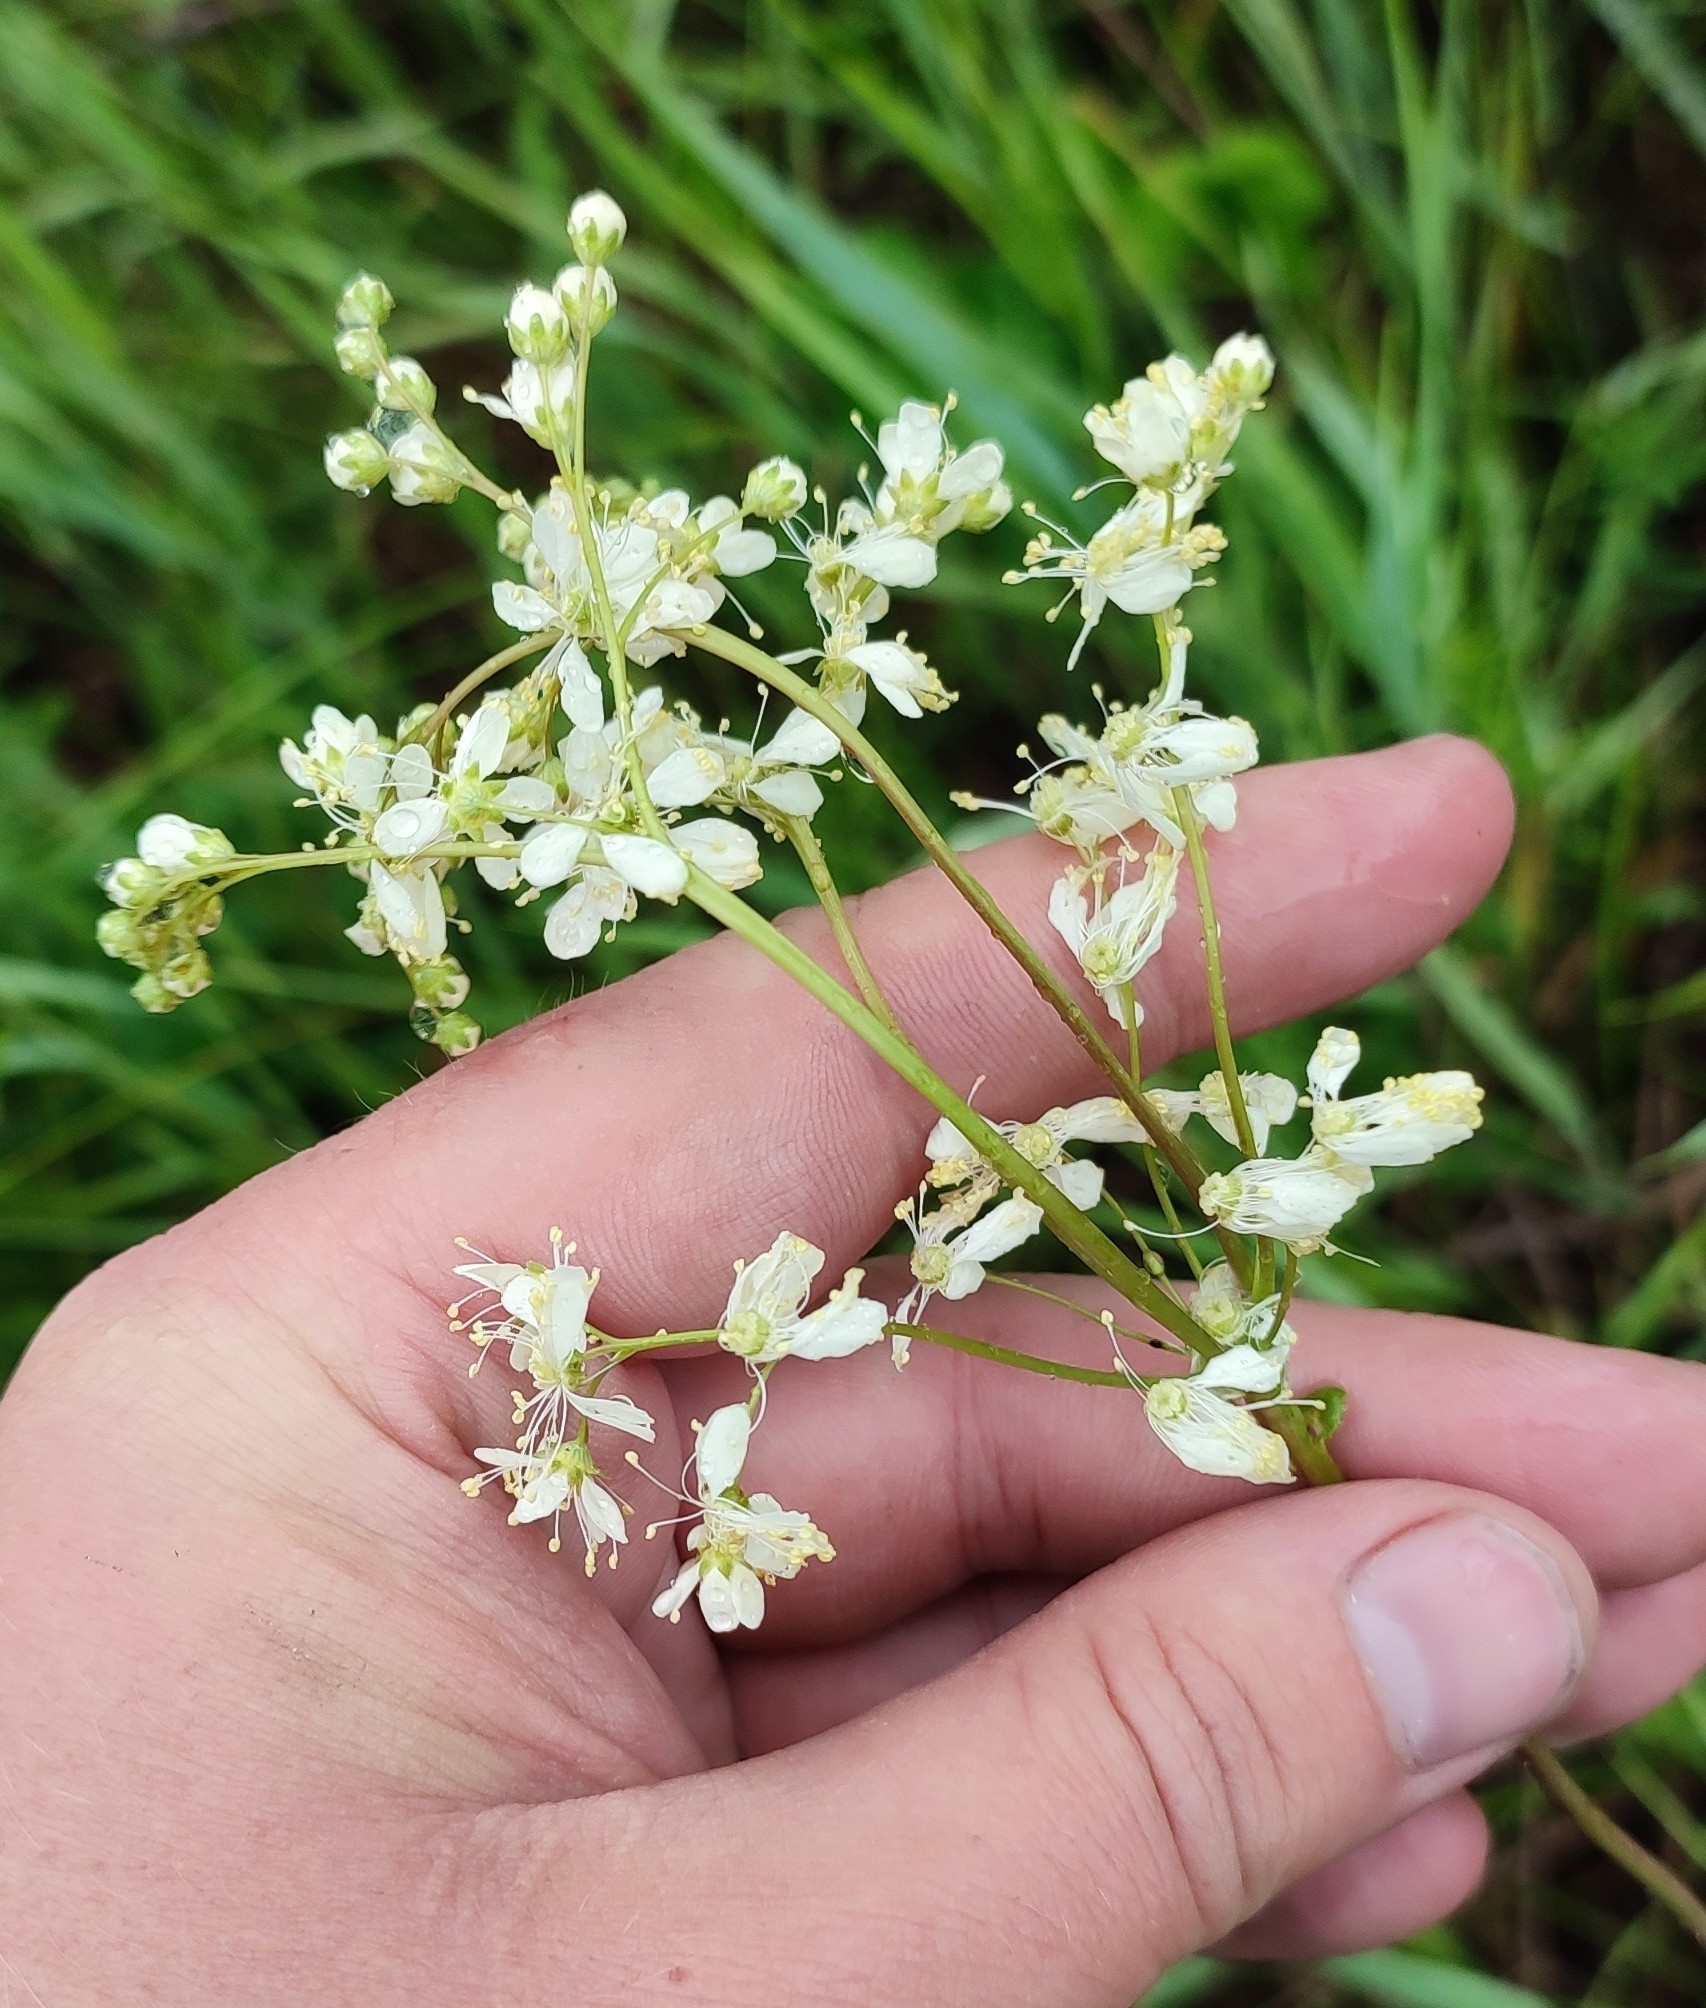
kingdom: Plantae
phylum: Tracheophyta
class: Magnoliopsida
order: Rosales
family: Rosaceae
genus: Filipendula
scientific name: Filipendula vulgaris
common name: Dropwort
